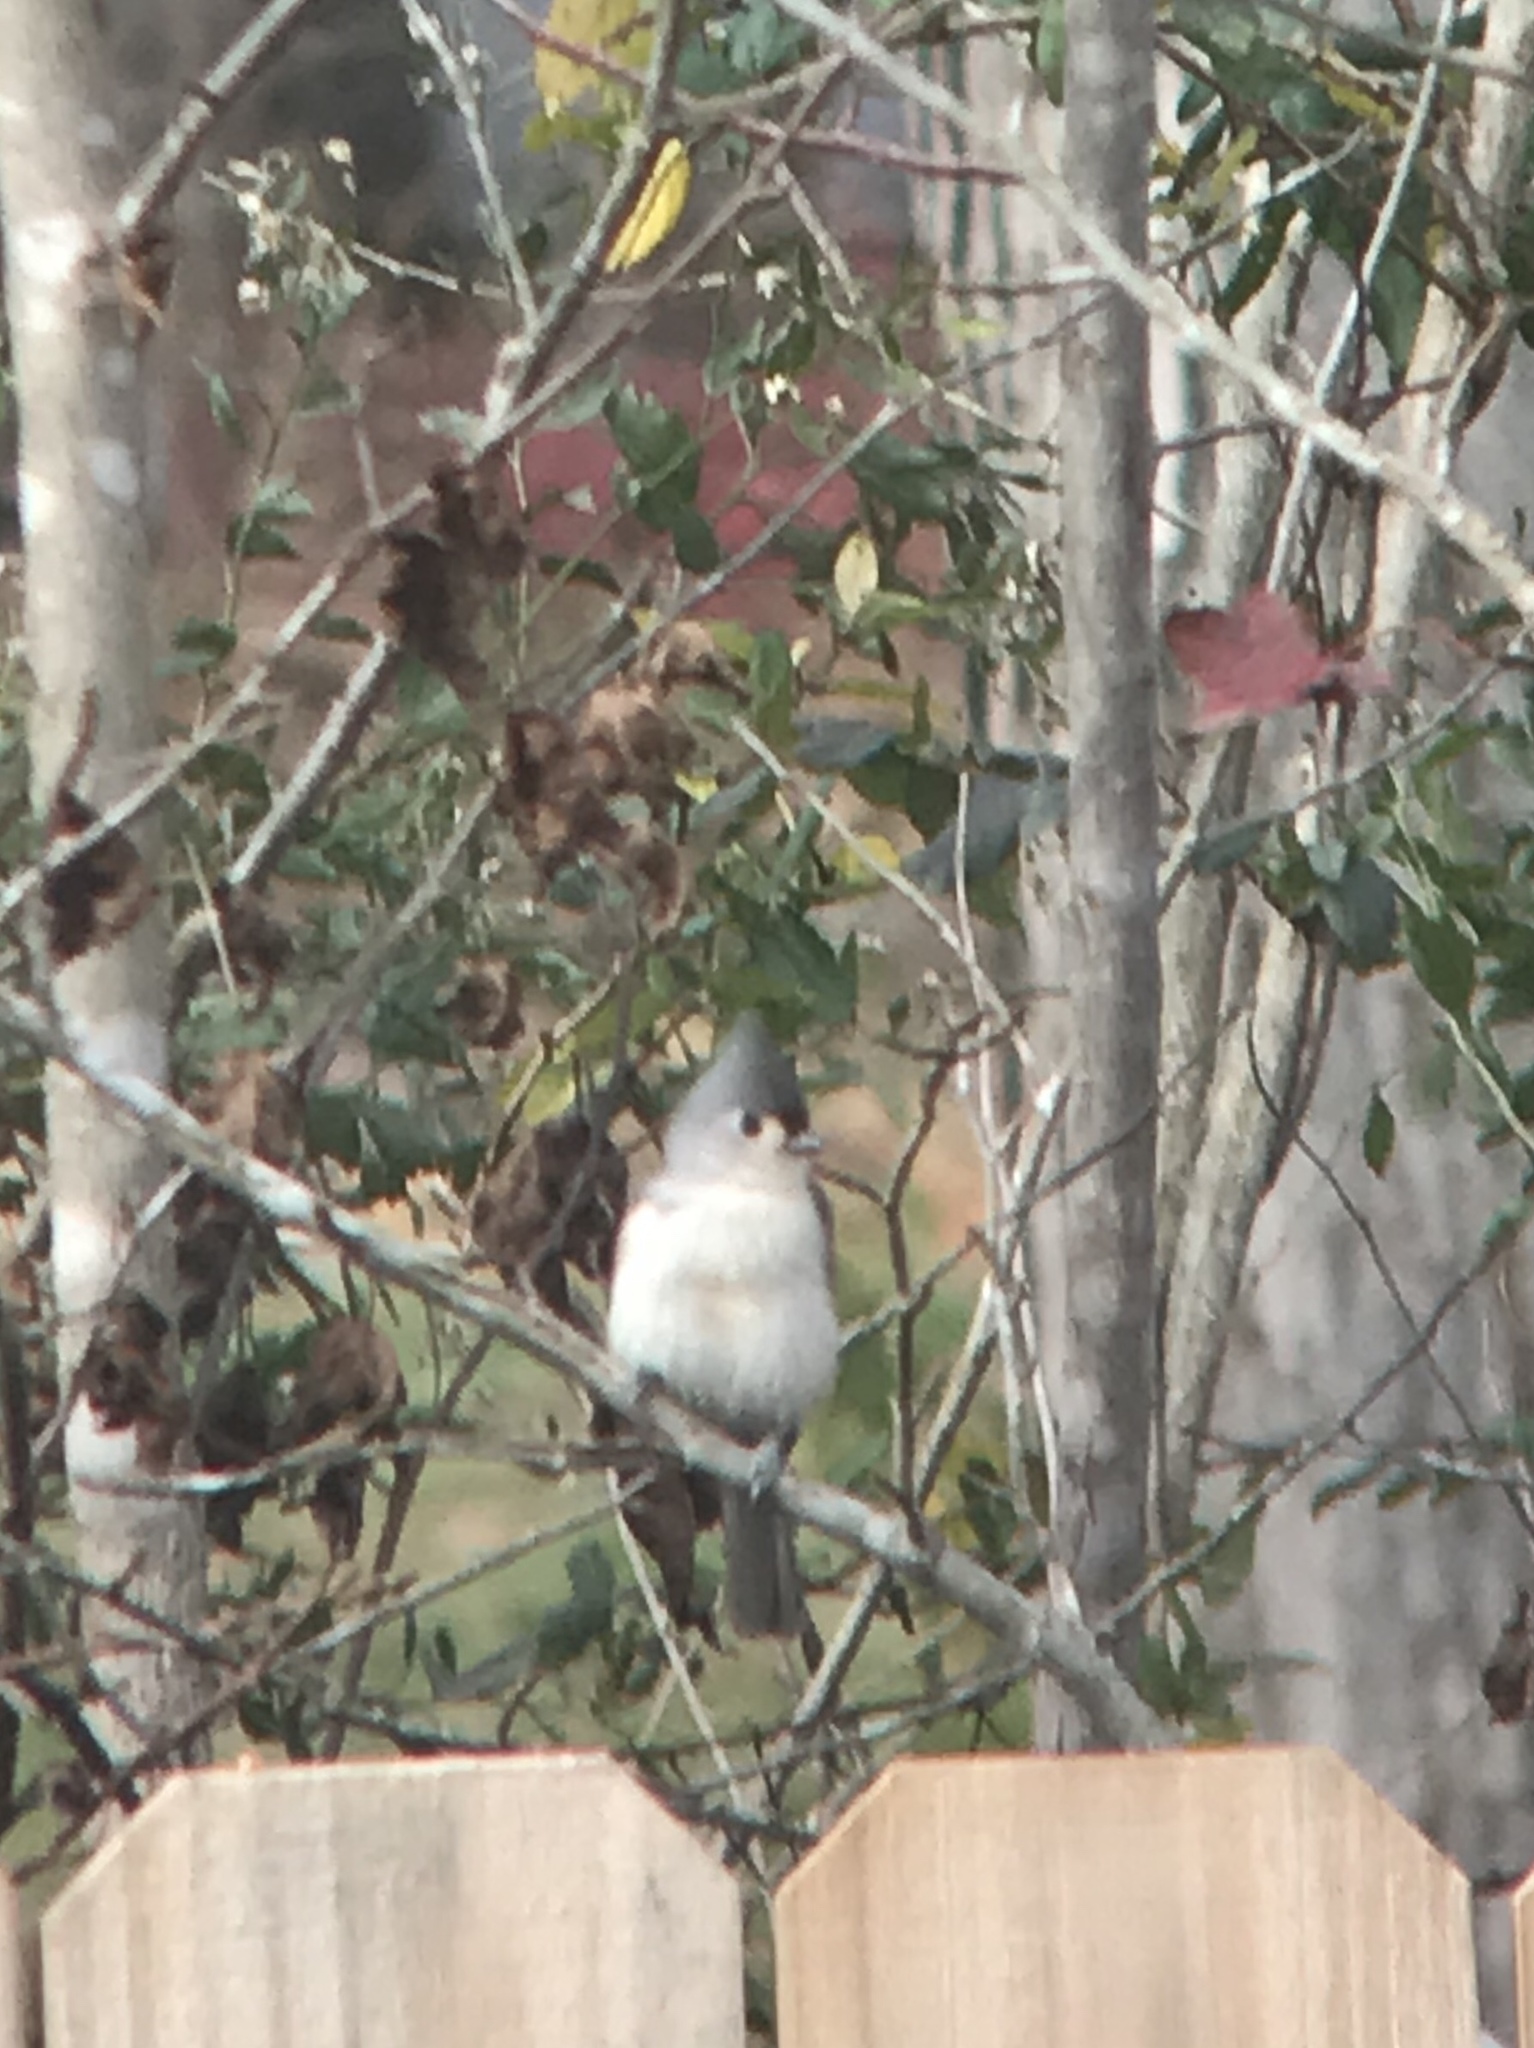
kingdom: Animalia
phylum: Chordata
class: Aves
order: Passeriformes
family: Paridae
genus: Baeolophus
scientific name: Baeolophus bicolor
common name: Tufted titmouse
